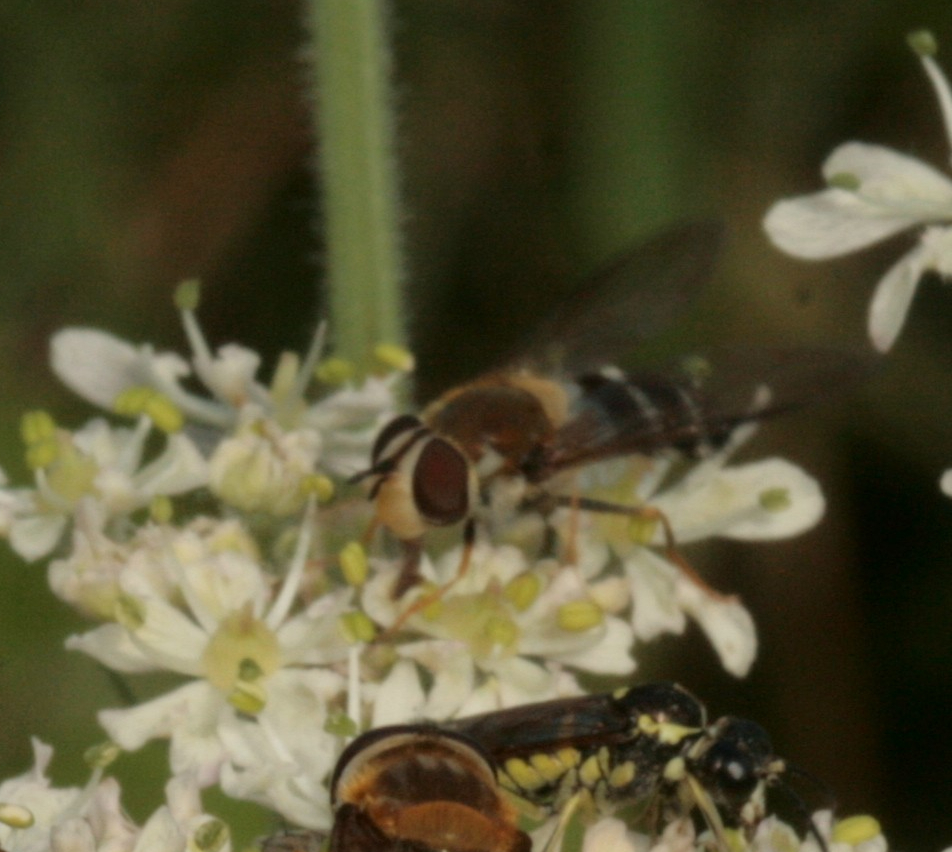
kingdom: Animalia
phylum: Arthropoda
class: Insecta
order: Diptera
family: Syrphidae
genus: Leucozona
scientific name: Leucozona glaucia
